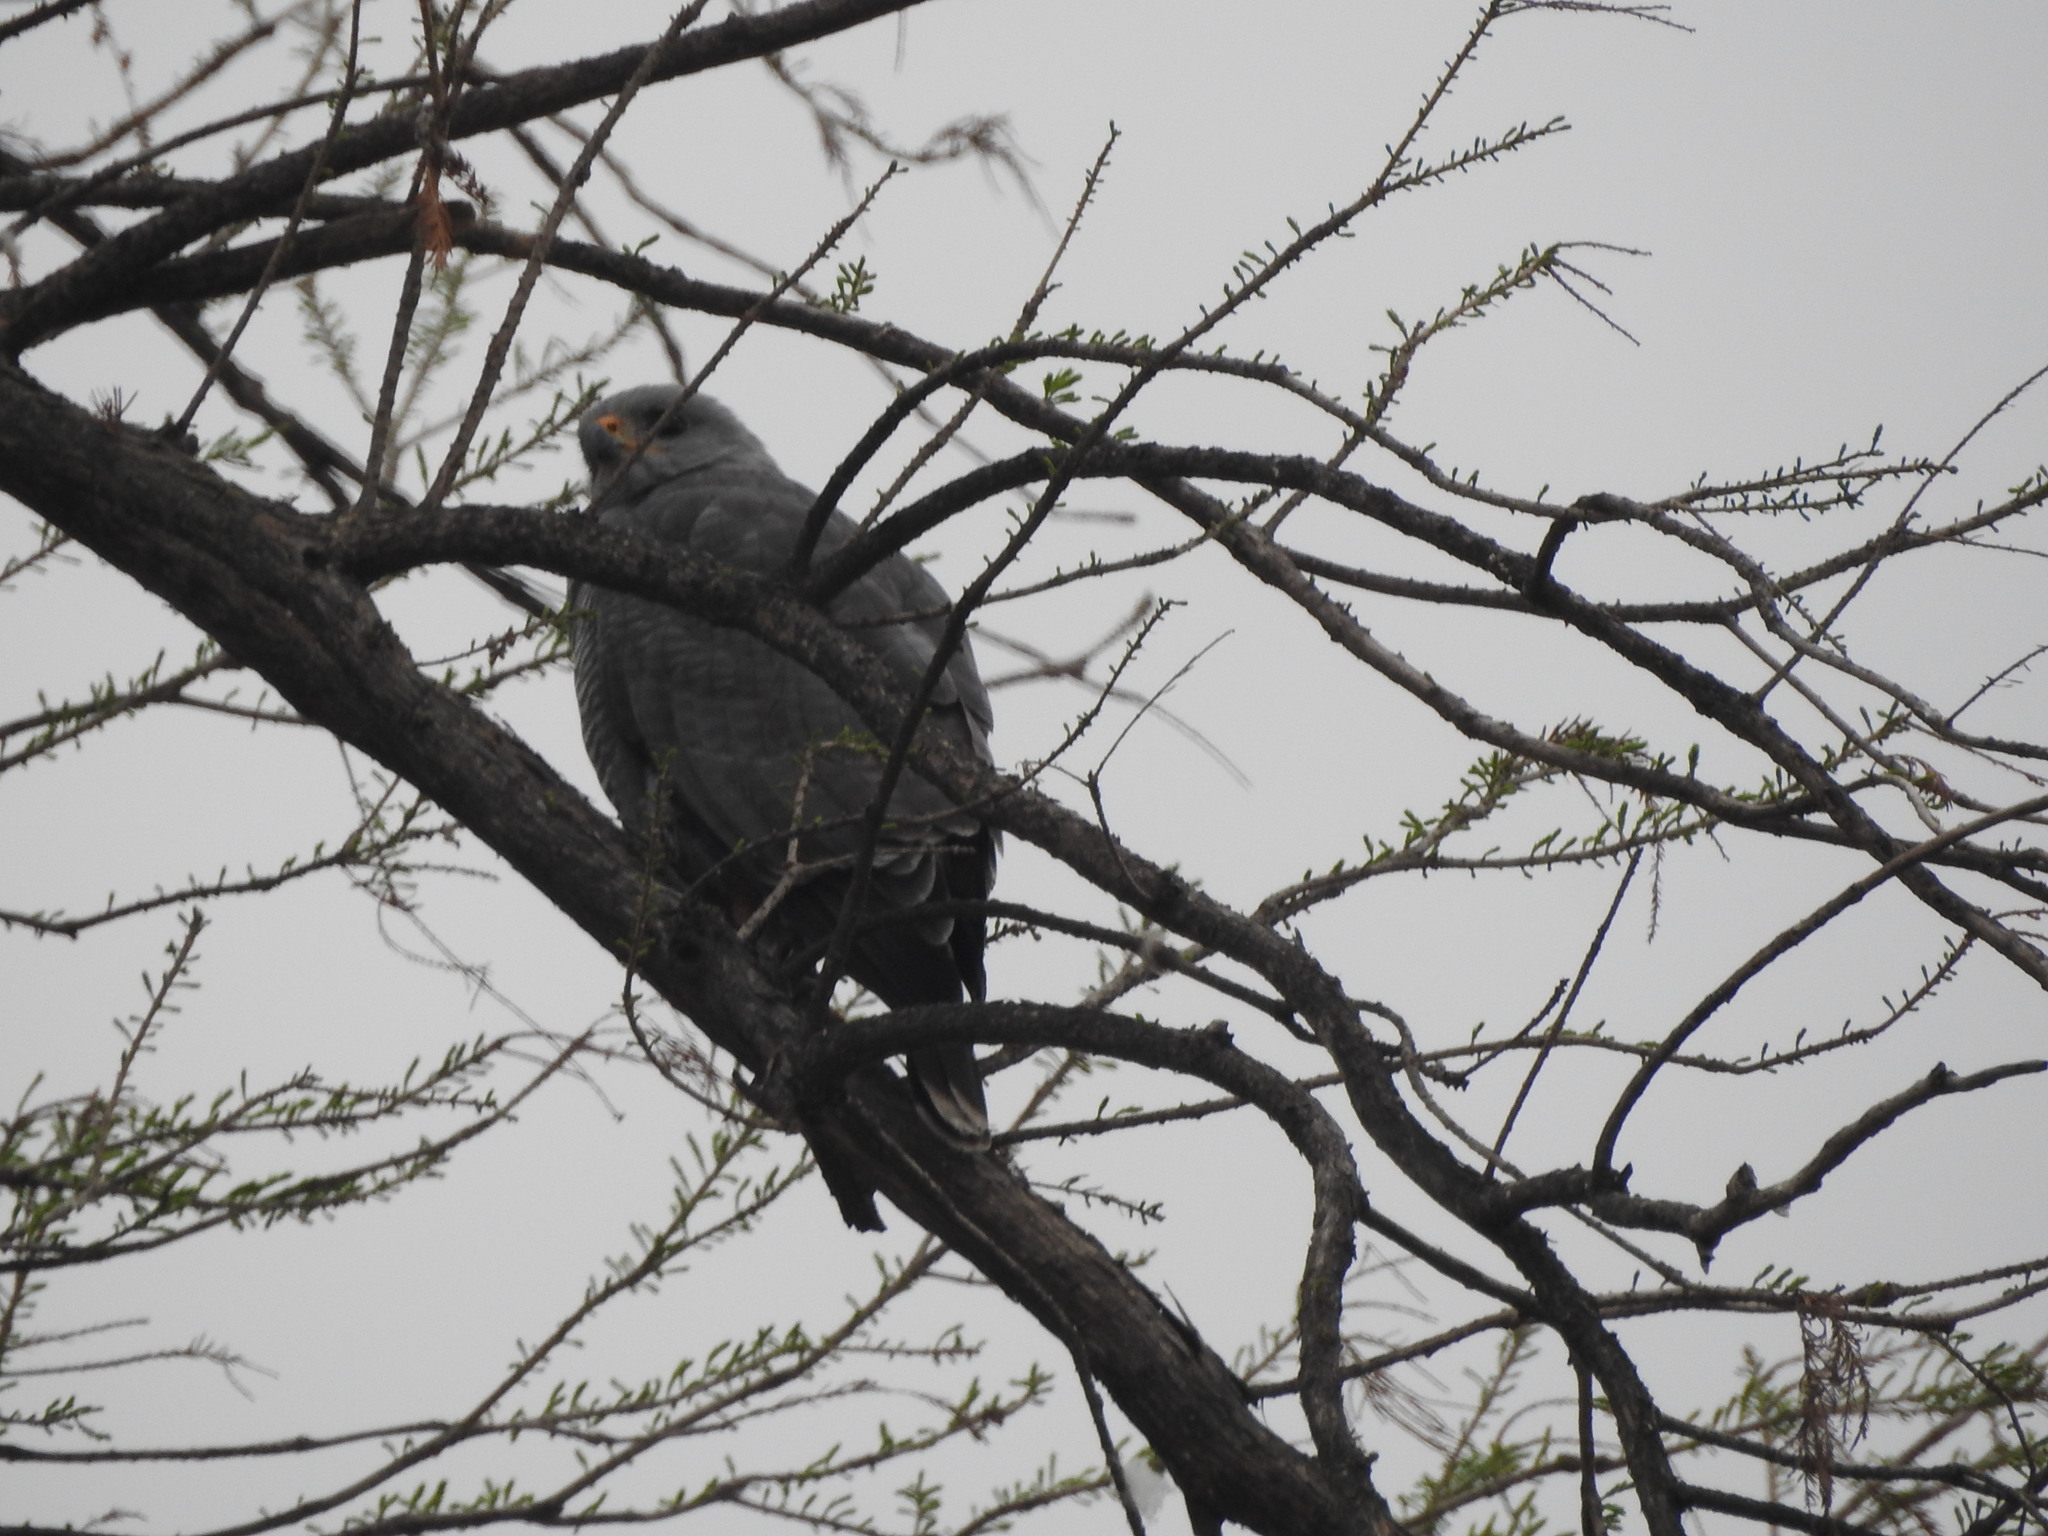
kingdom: Animalia
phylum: Chordata
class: Aves
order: Accipitriformes
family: Accipitridae
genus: Buteo
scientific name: Buteo nitidus
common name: Grey-lined hawk
